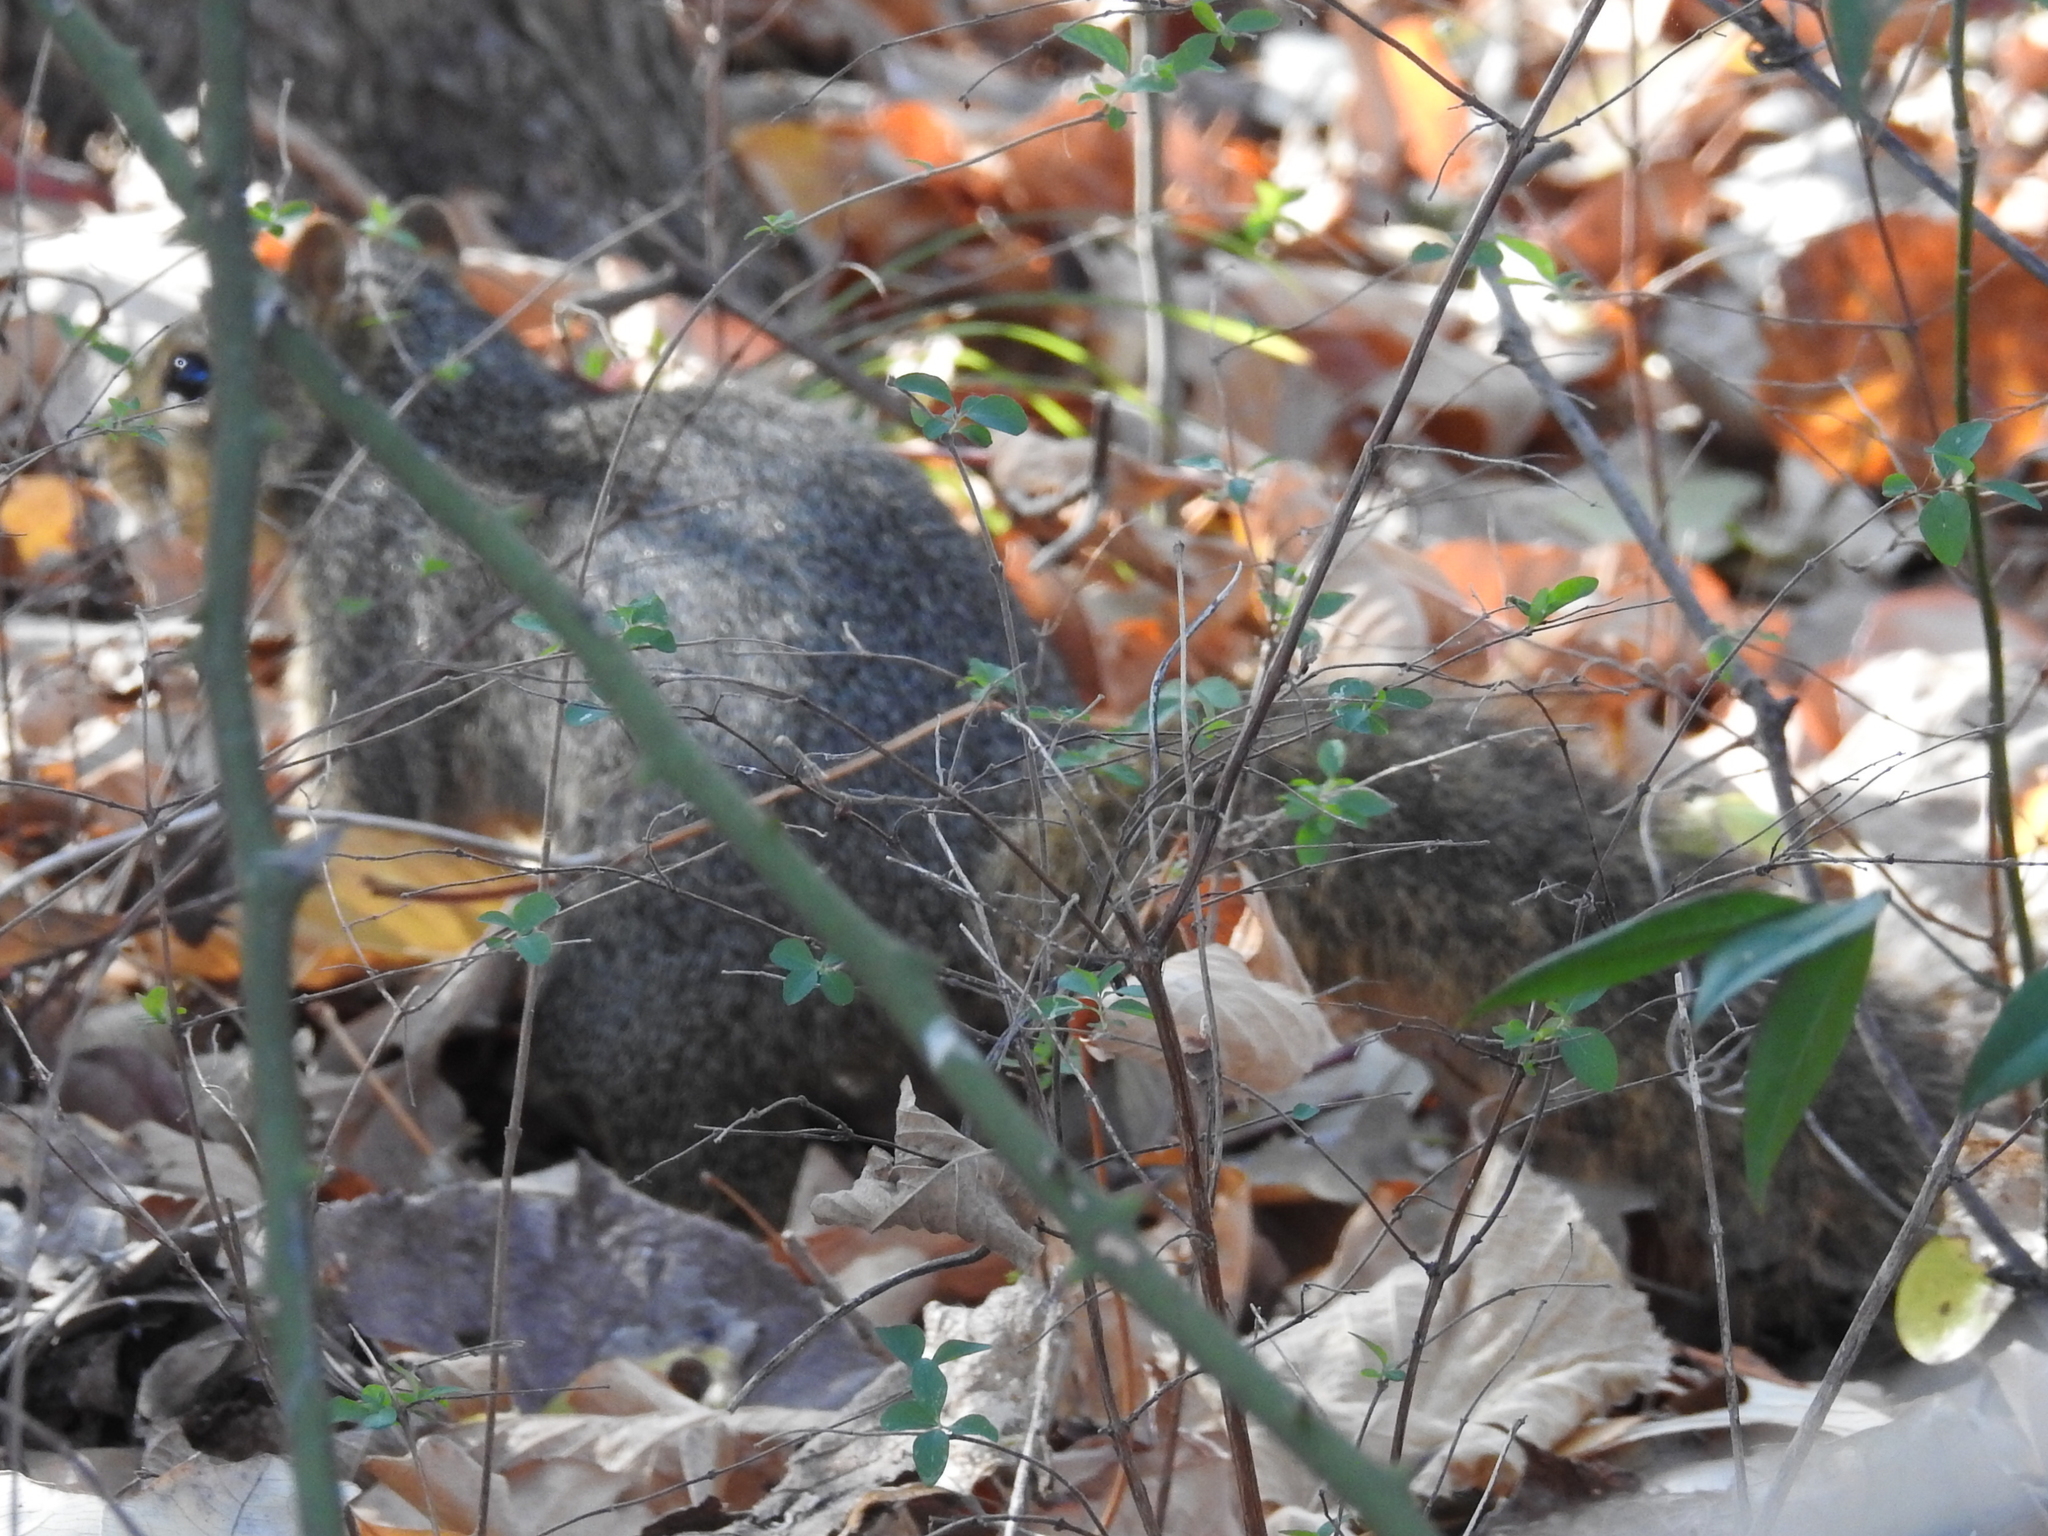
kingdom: Animalia
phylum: Chordata
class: Mammalia
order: Rodentia
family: Sciuridae
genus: Sciurus
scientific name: Sciurus niger
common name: Fox squirrel
